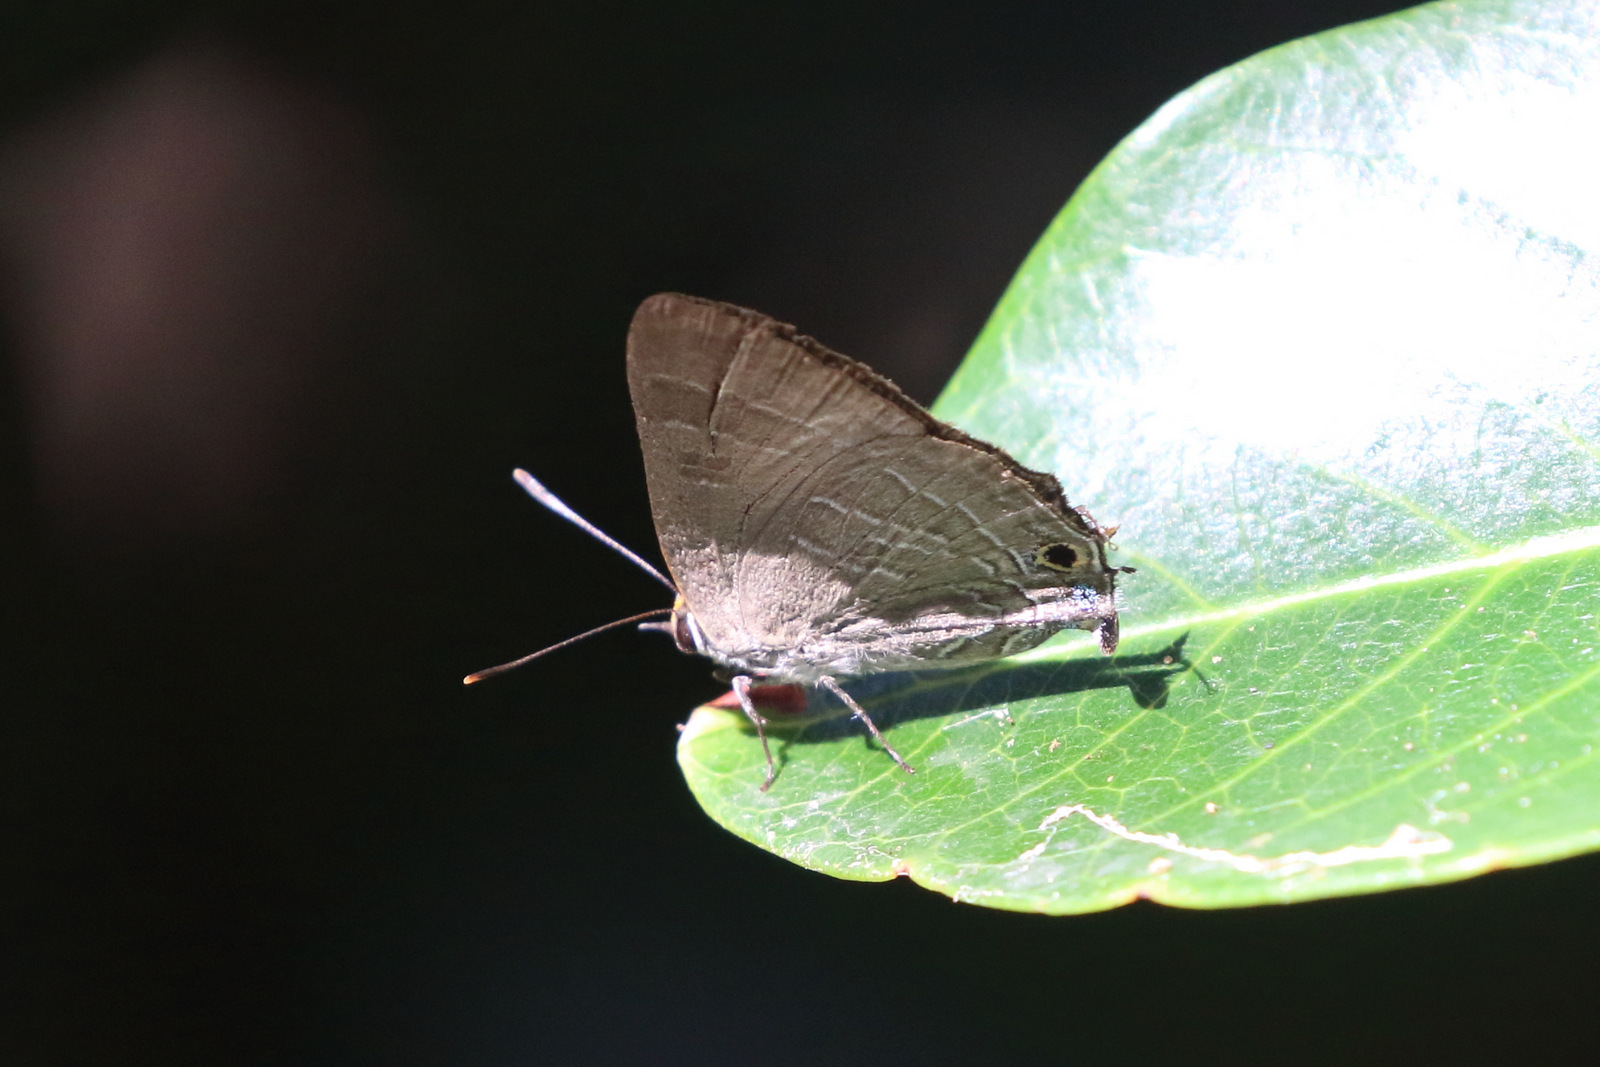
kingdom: Animalia
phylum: Arthropoda
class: Insecta
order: Lepidoptera
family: Lycaenidae
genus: Deudorix
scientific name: Deudorix diovis
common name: Bright cornelian
